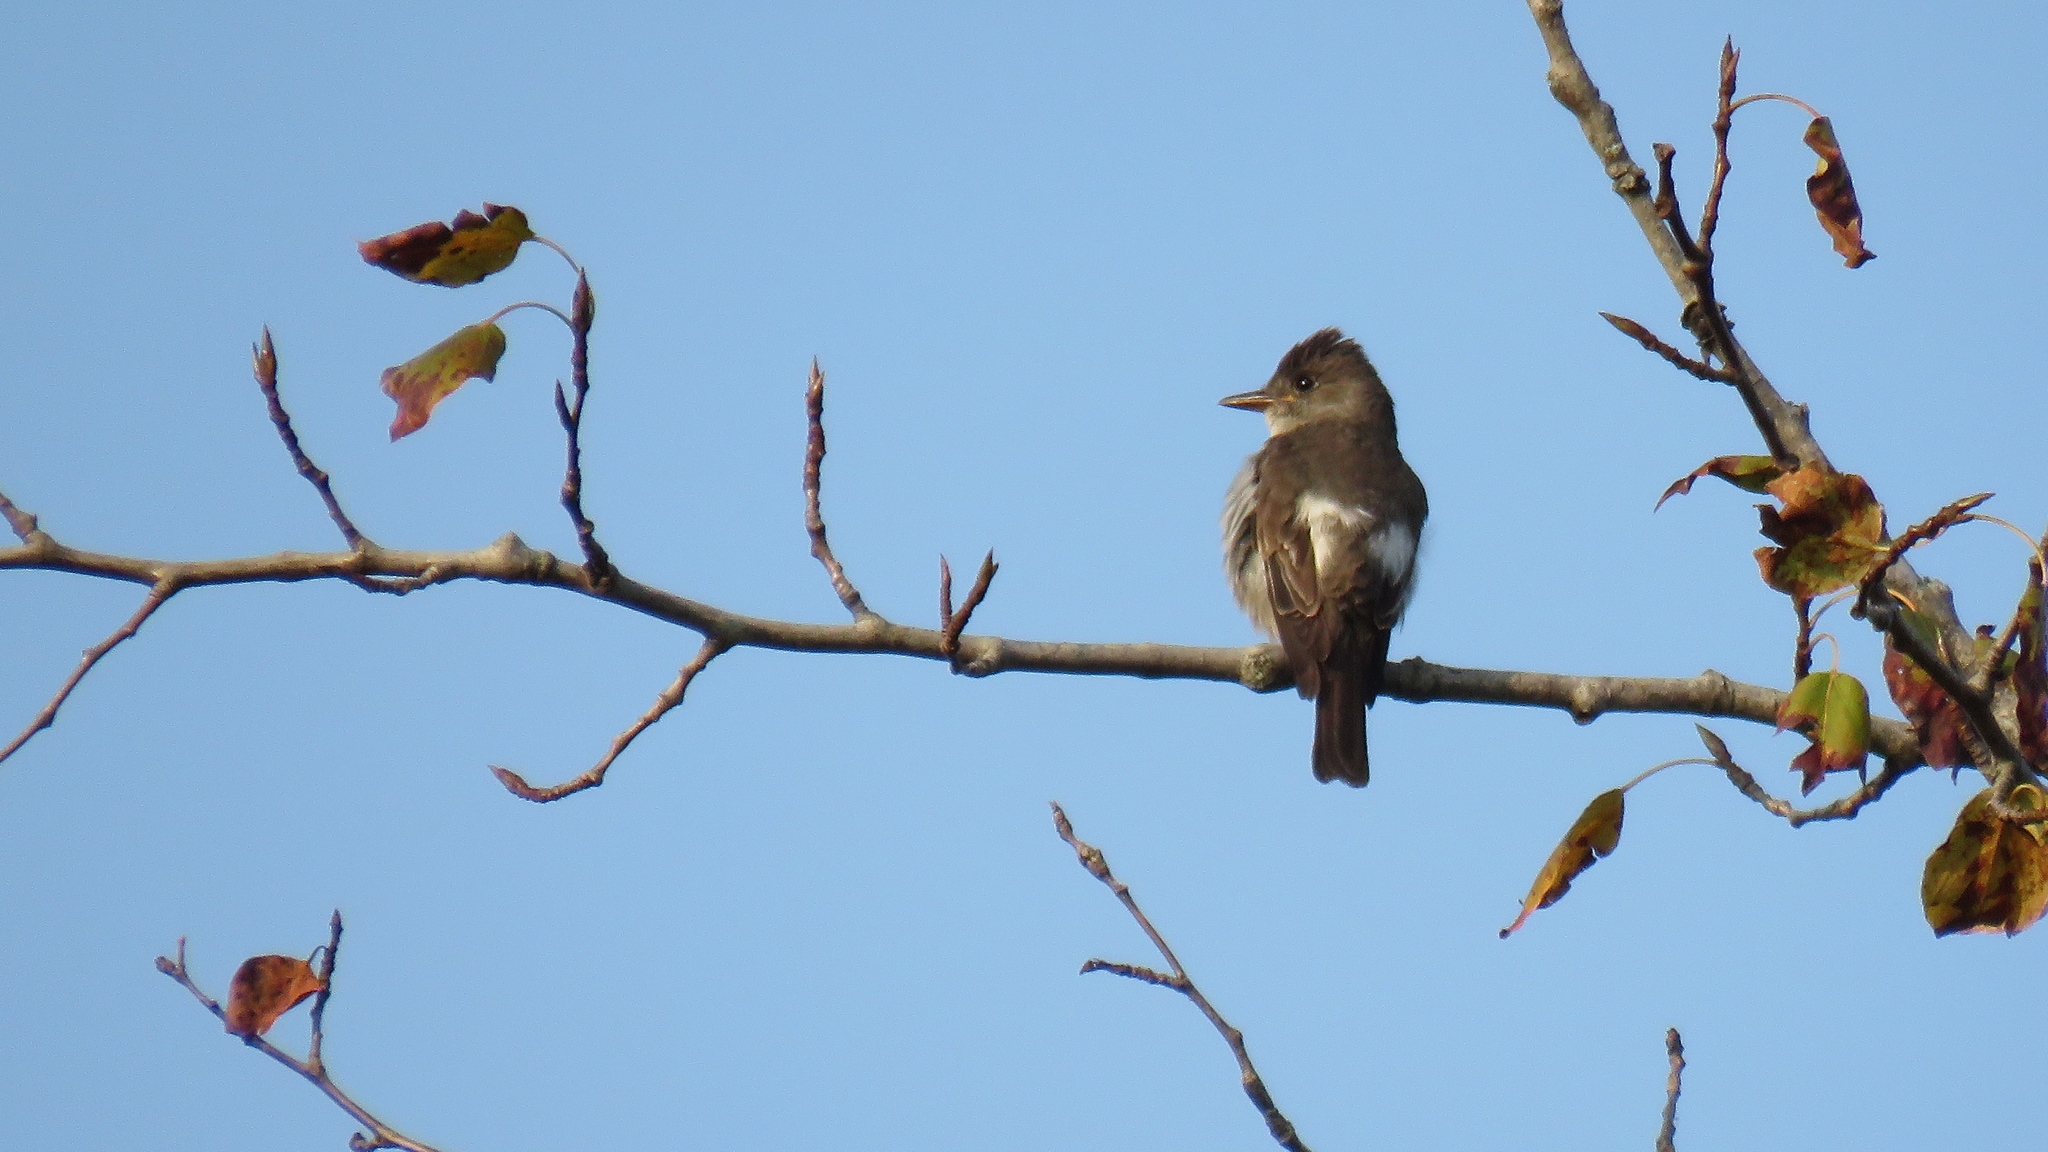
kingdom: Animalia
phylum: Chordata
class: Aves
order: Passeriformes
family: Tyrannidae
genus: Contopus
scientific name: Contopus cooperi
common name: Olive-sided flycatcher
